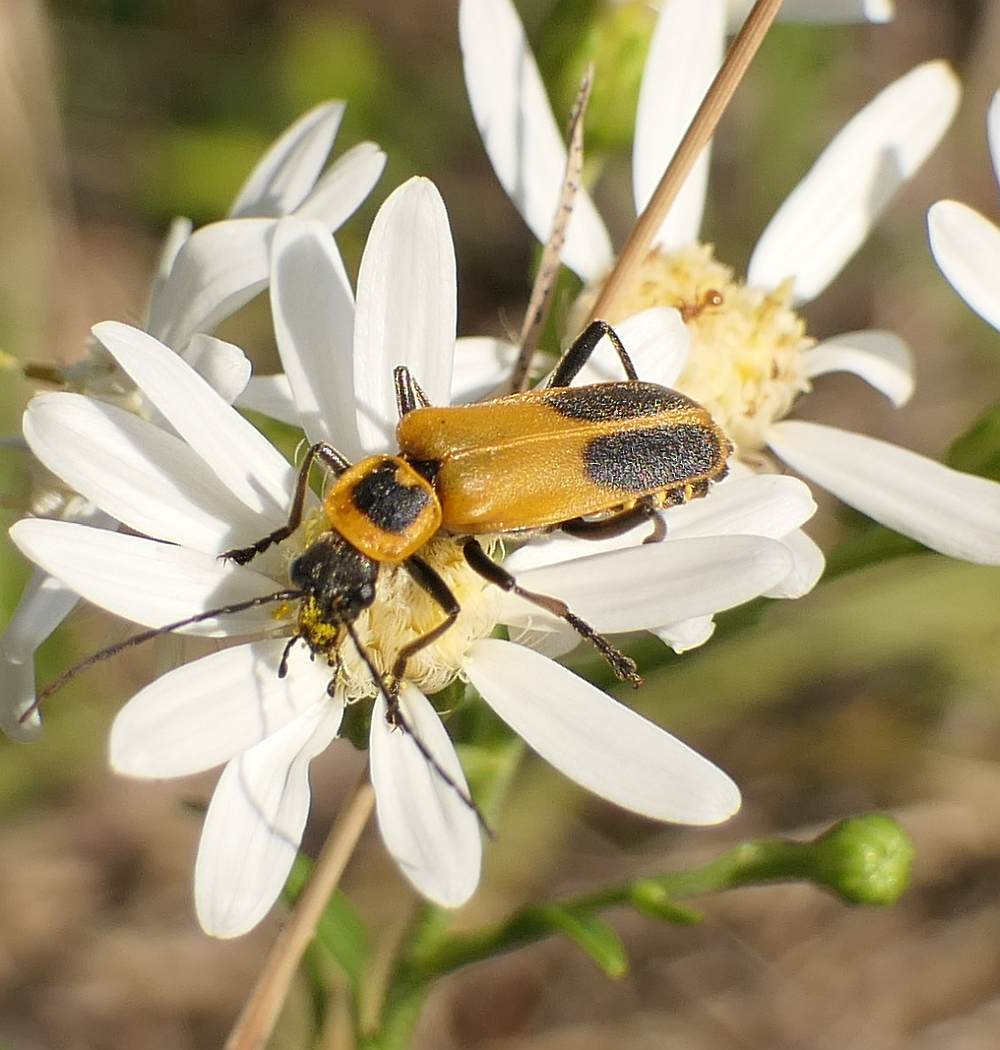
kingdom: Animalia
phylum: Arthropoda
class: Insecta
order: Coleoptera
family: Cantharidae
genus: Chauliognathus
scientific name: Chauliognathus pensylvanicus
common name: Goldenrod soldier beetle
